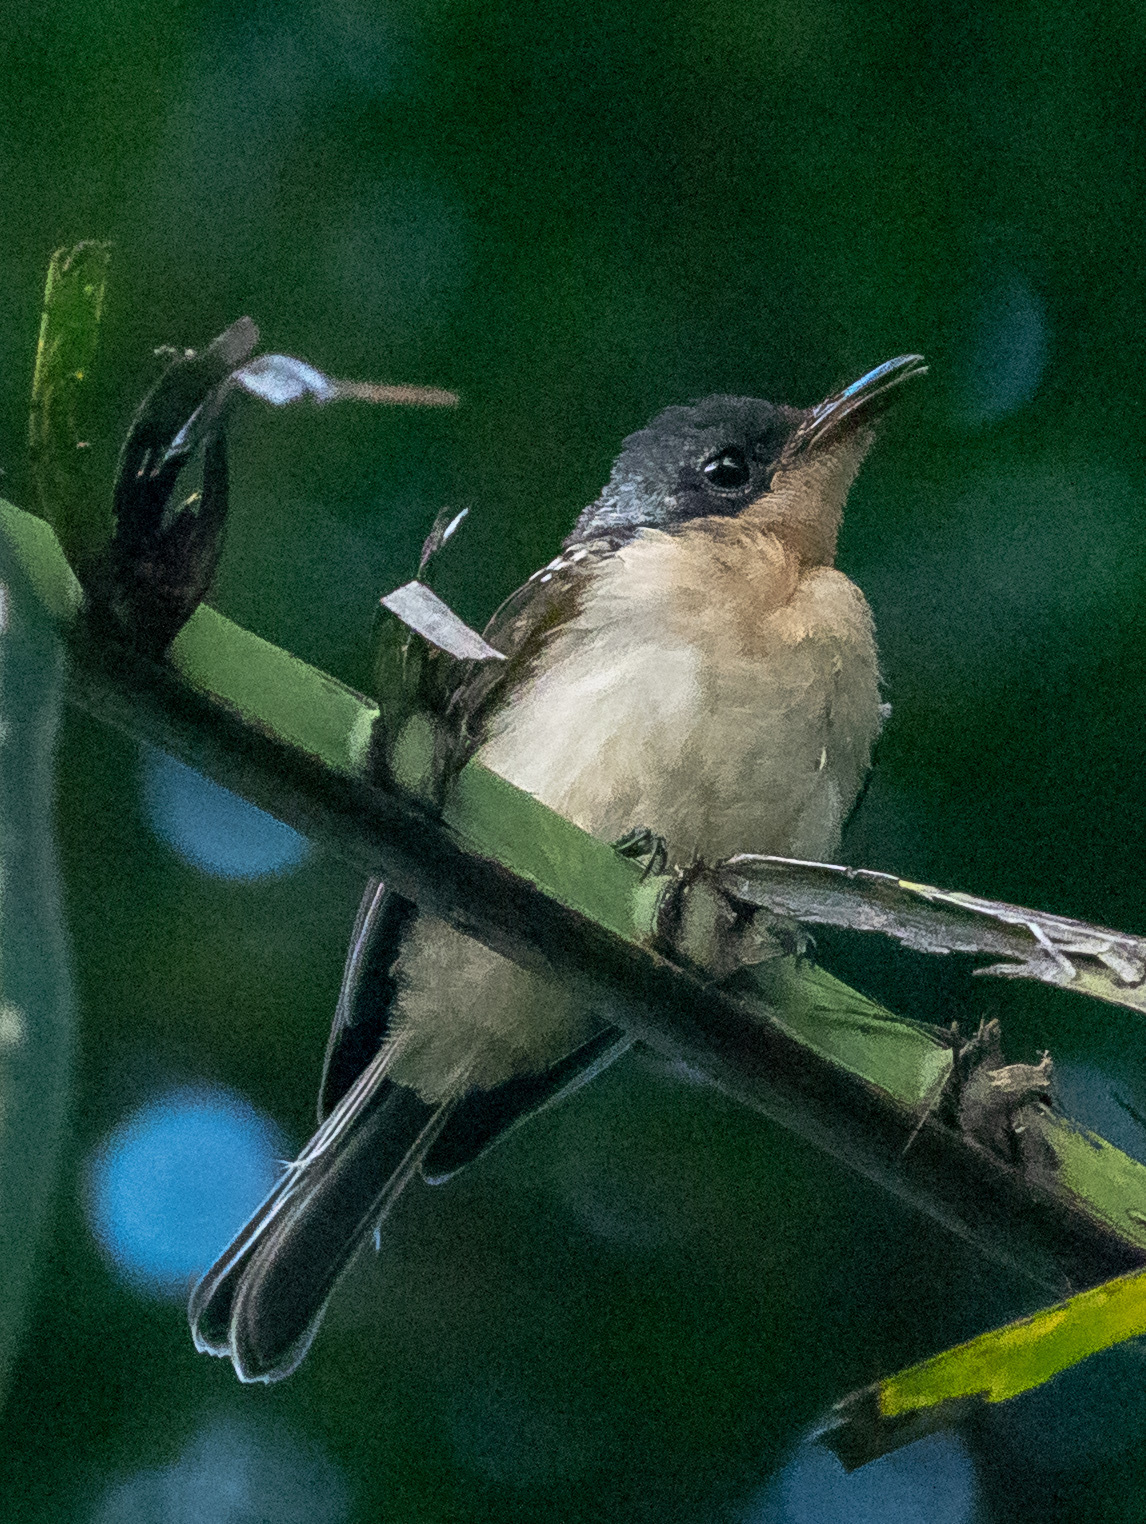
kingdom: Animalia
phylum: Chordata
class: Aves
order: Passeriformes
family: Monarchidae
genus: Myiagra
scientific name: Myiagra vanikorensis
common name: Vanikoro flycatcher
